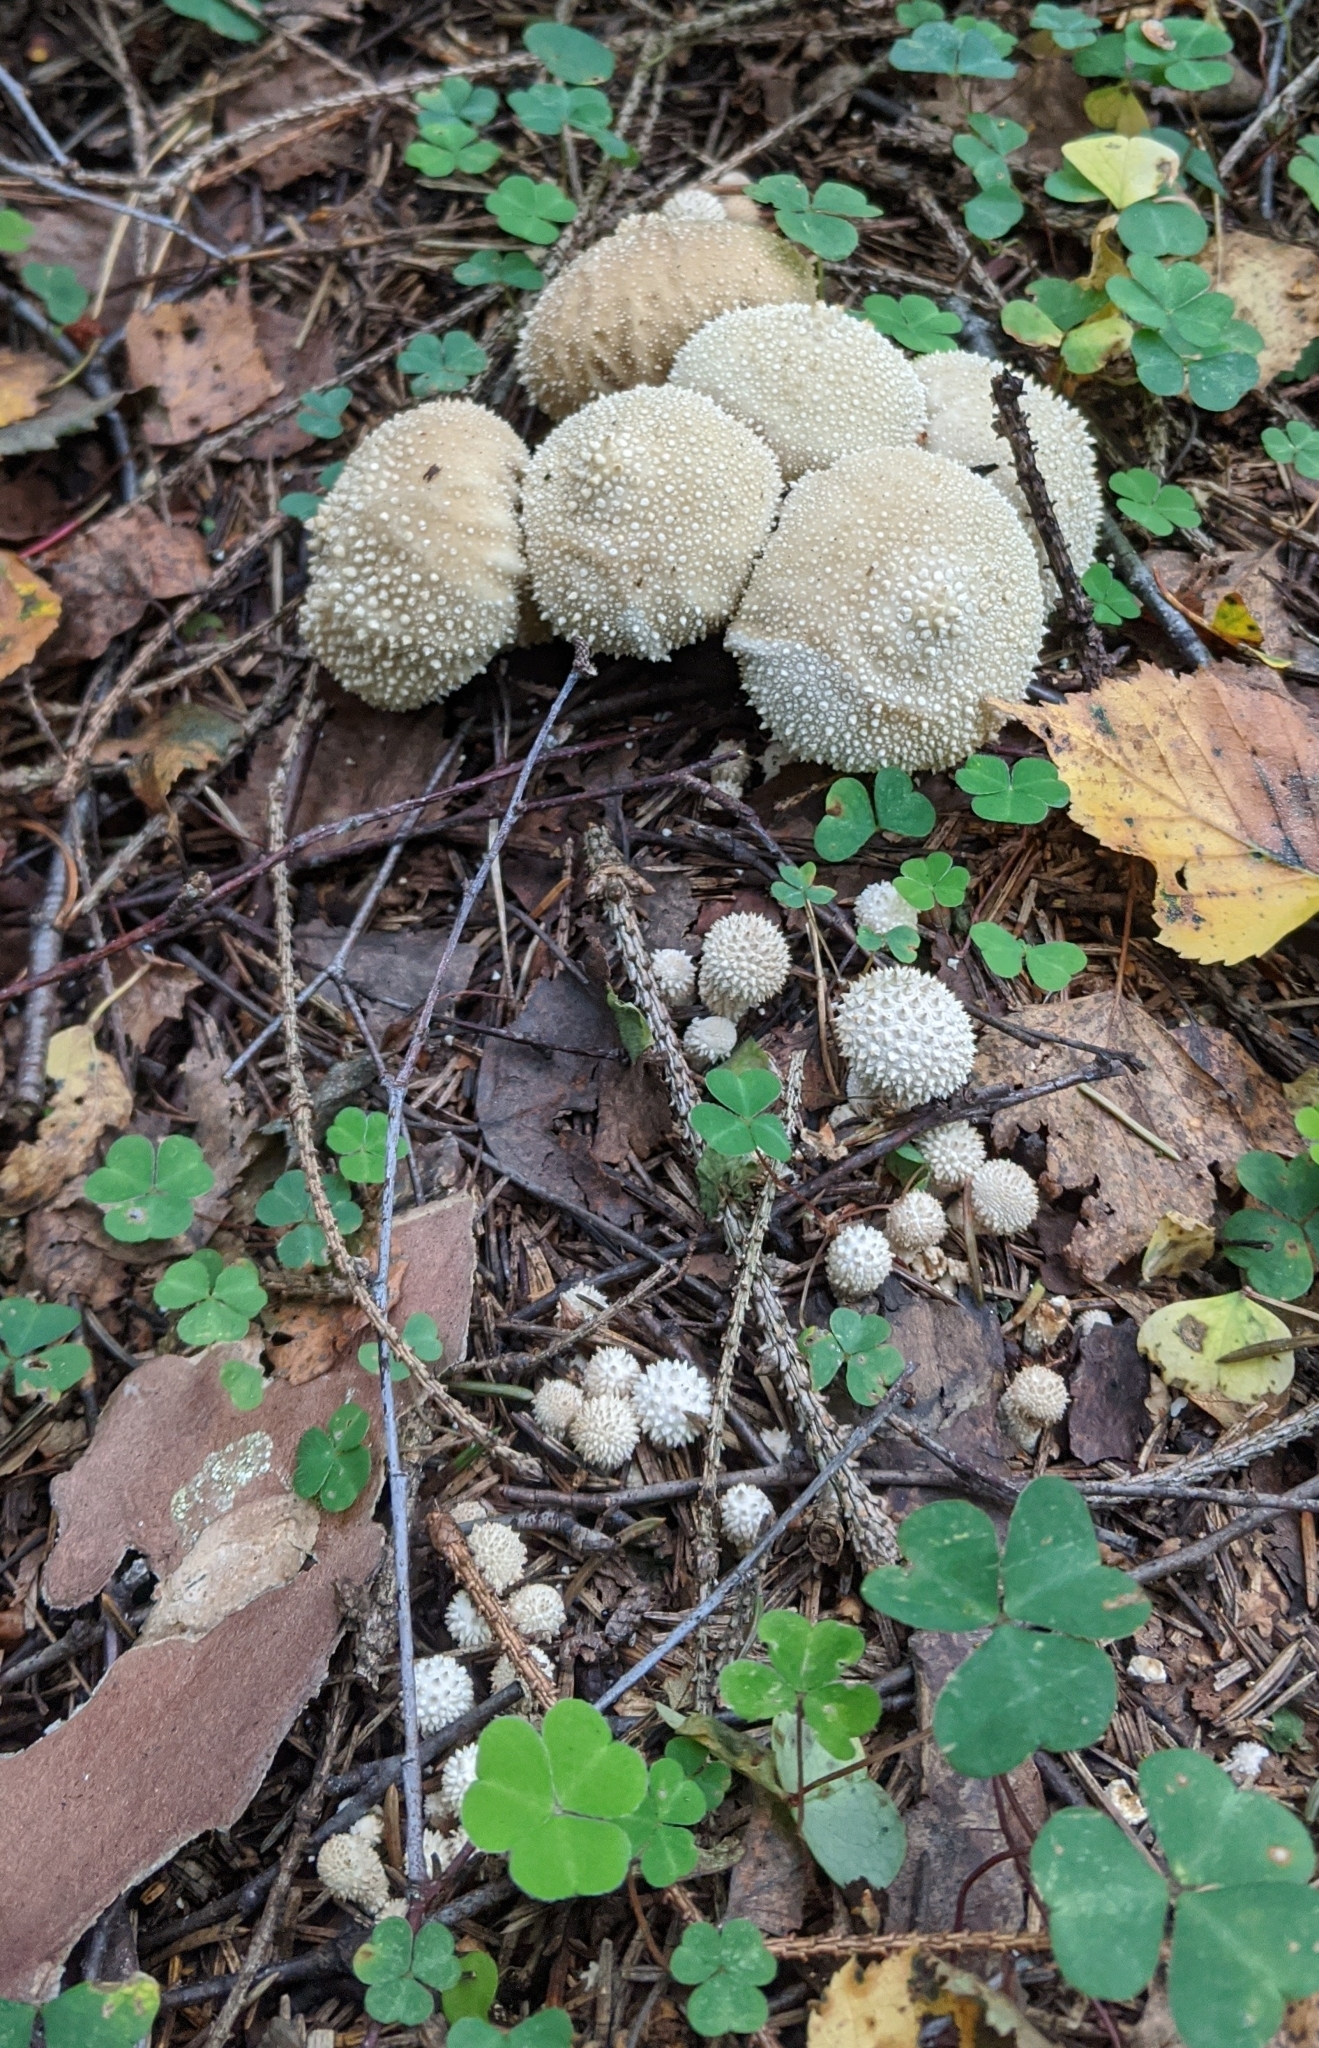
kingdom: Fungi
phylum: Basidiomycota
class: Agaricomycetes
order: Agaricales
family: Lycoperdaceae
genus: Lycoperdon
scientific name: Lycoperdon perlatum
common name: Common puffball
